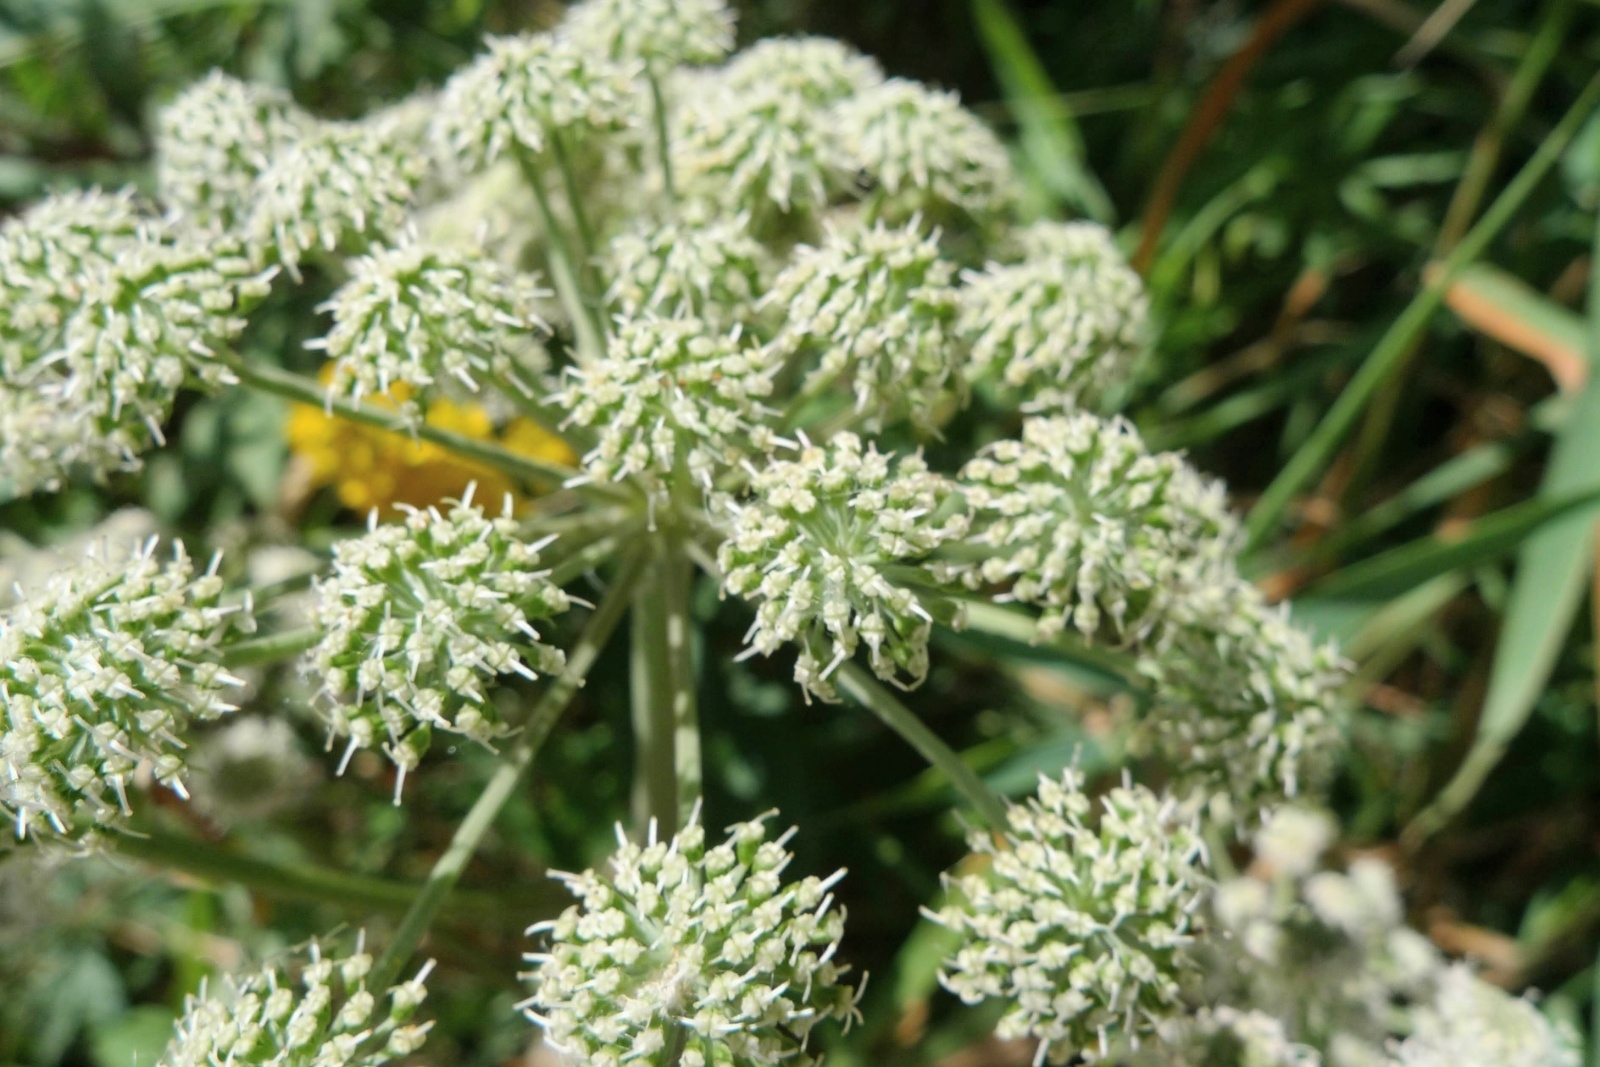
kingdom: Plantae
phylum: Tracheophyta
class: Magnoliopsida
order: Apiales
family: Apiaceae
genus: Angelica
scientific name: Angelica sylvestris
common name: Wild angelica
